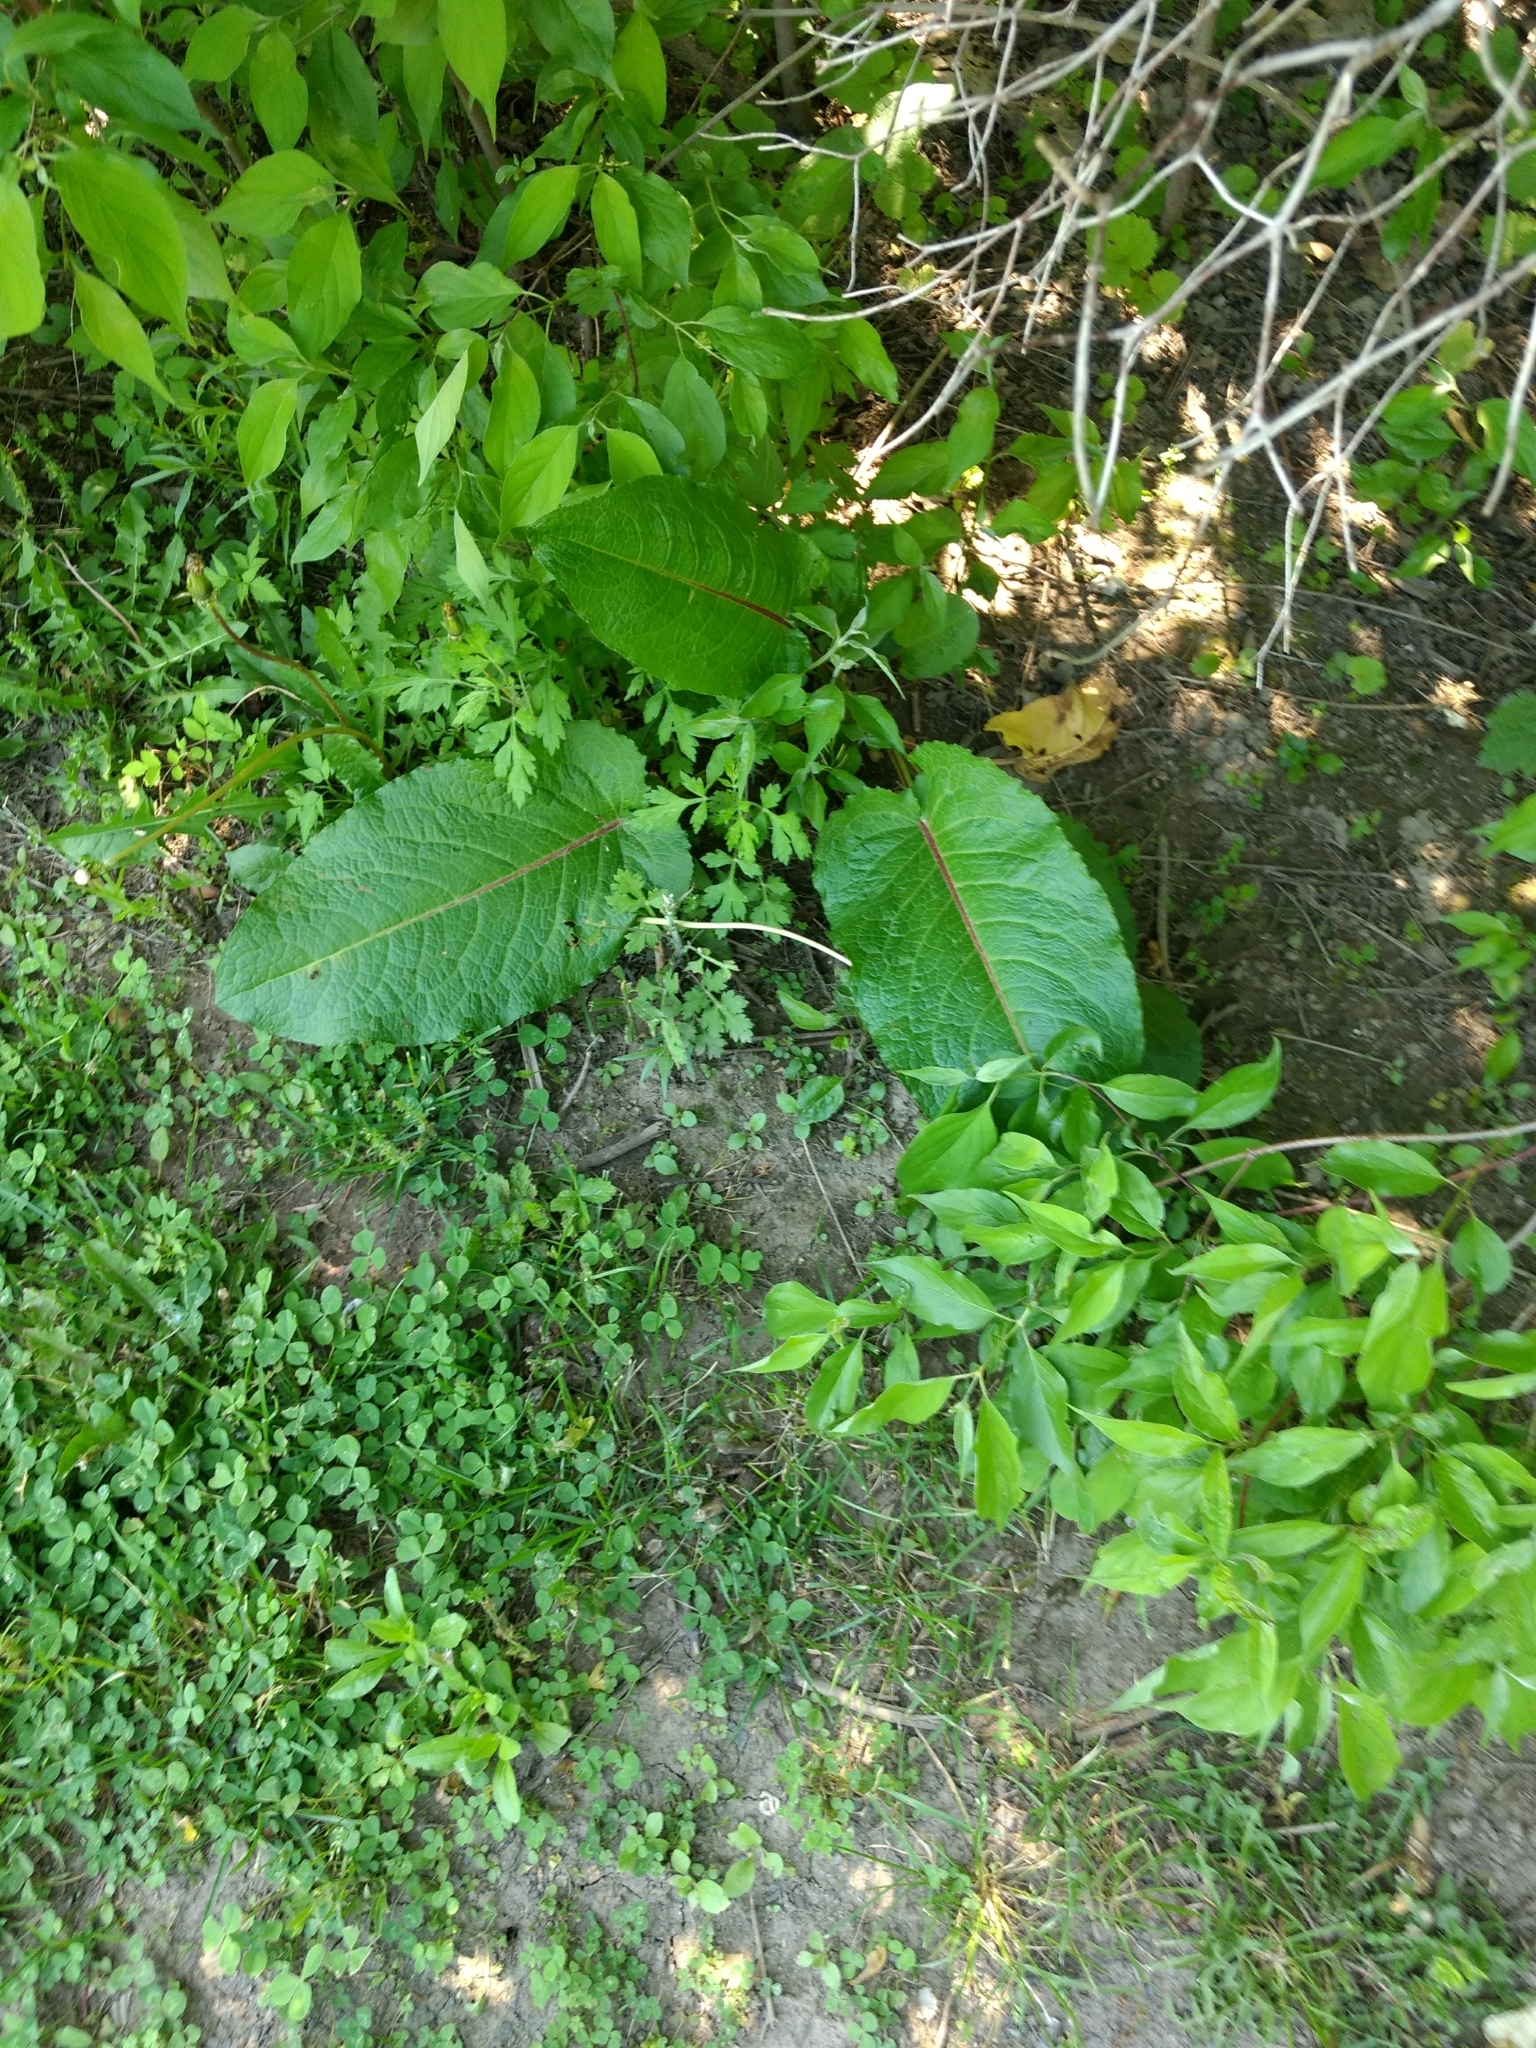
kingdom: Plantae
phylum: Tracheophyta
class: Magnoliopsida
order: Caryophyllales
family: Polygonaceae
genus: Rumex
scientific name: Rumex obtusifolius
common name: Bitter dock
